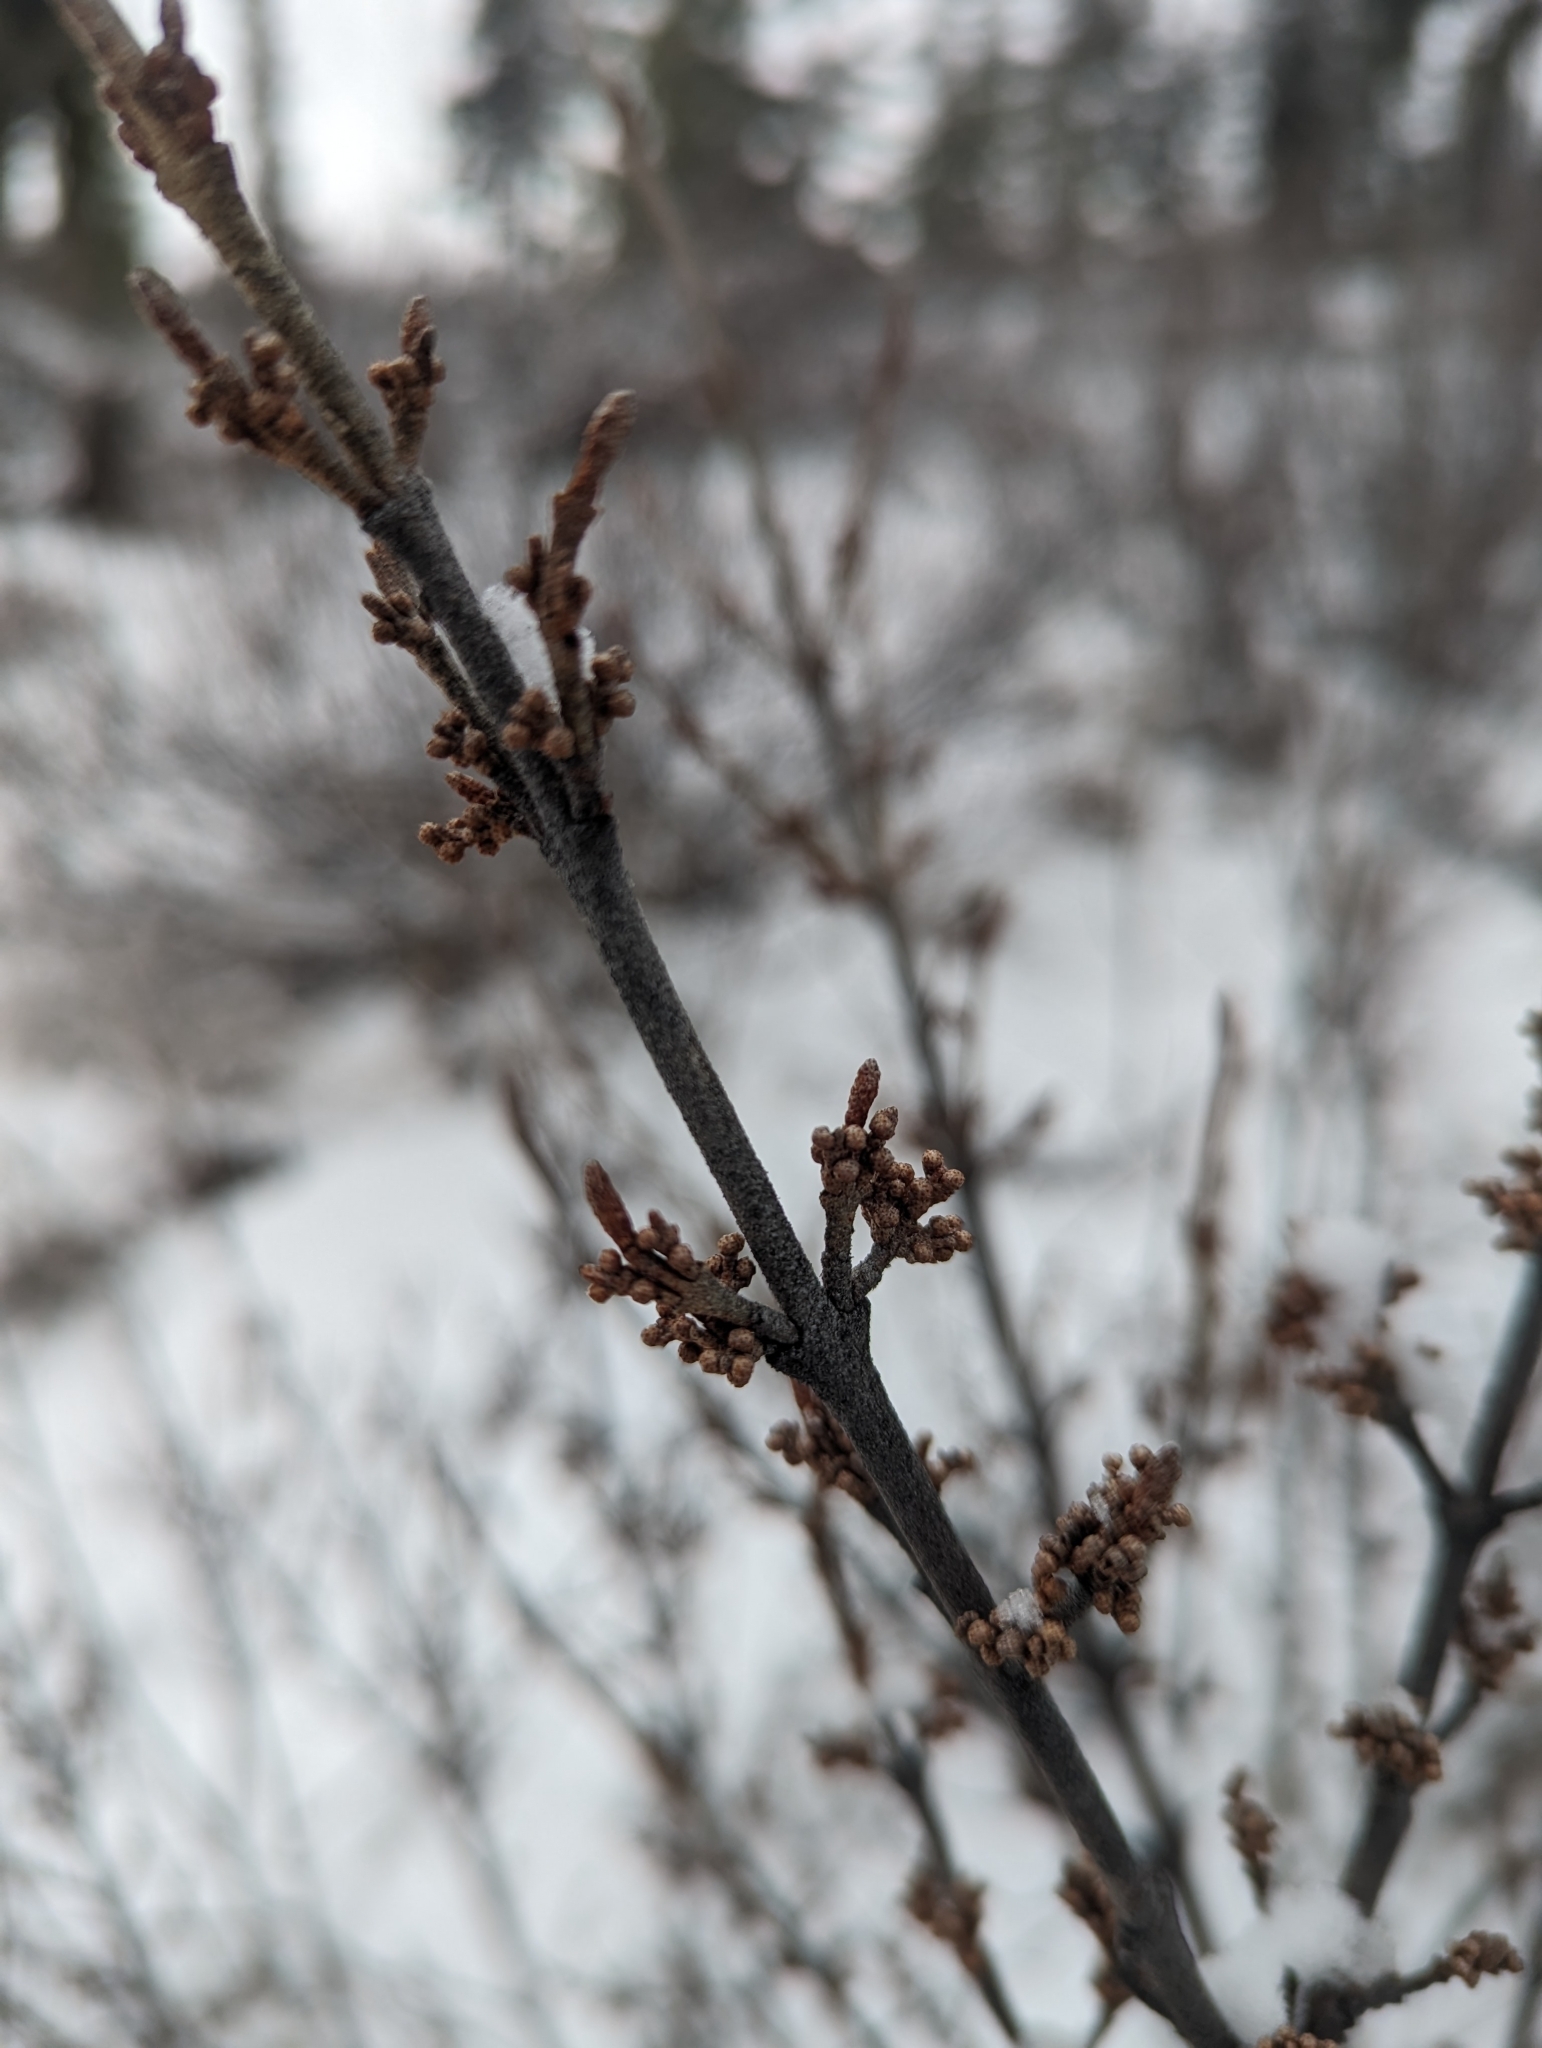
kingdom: Plantae
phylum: Tracheophyta
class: Magnoliopsida
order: Rosales
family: Elaeagnaceae
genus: Shepherdia
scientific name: Shepherdia canadensis
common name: Soapberry
